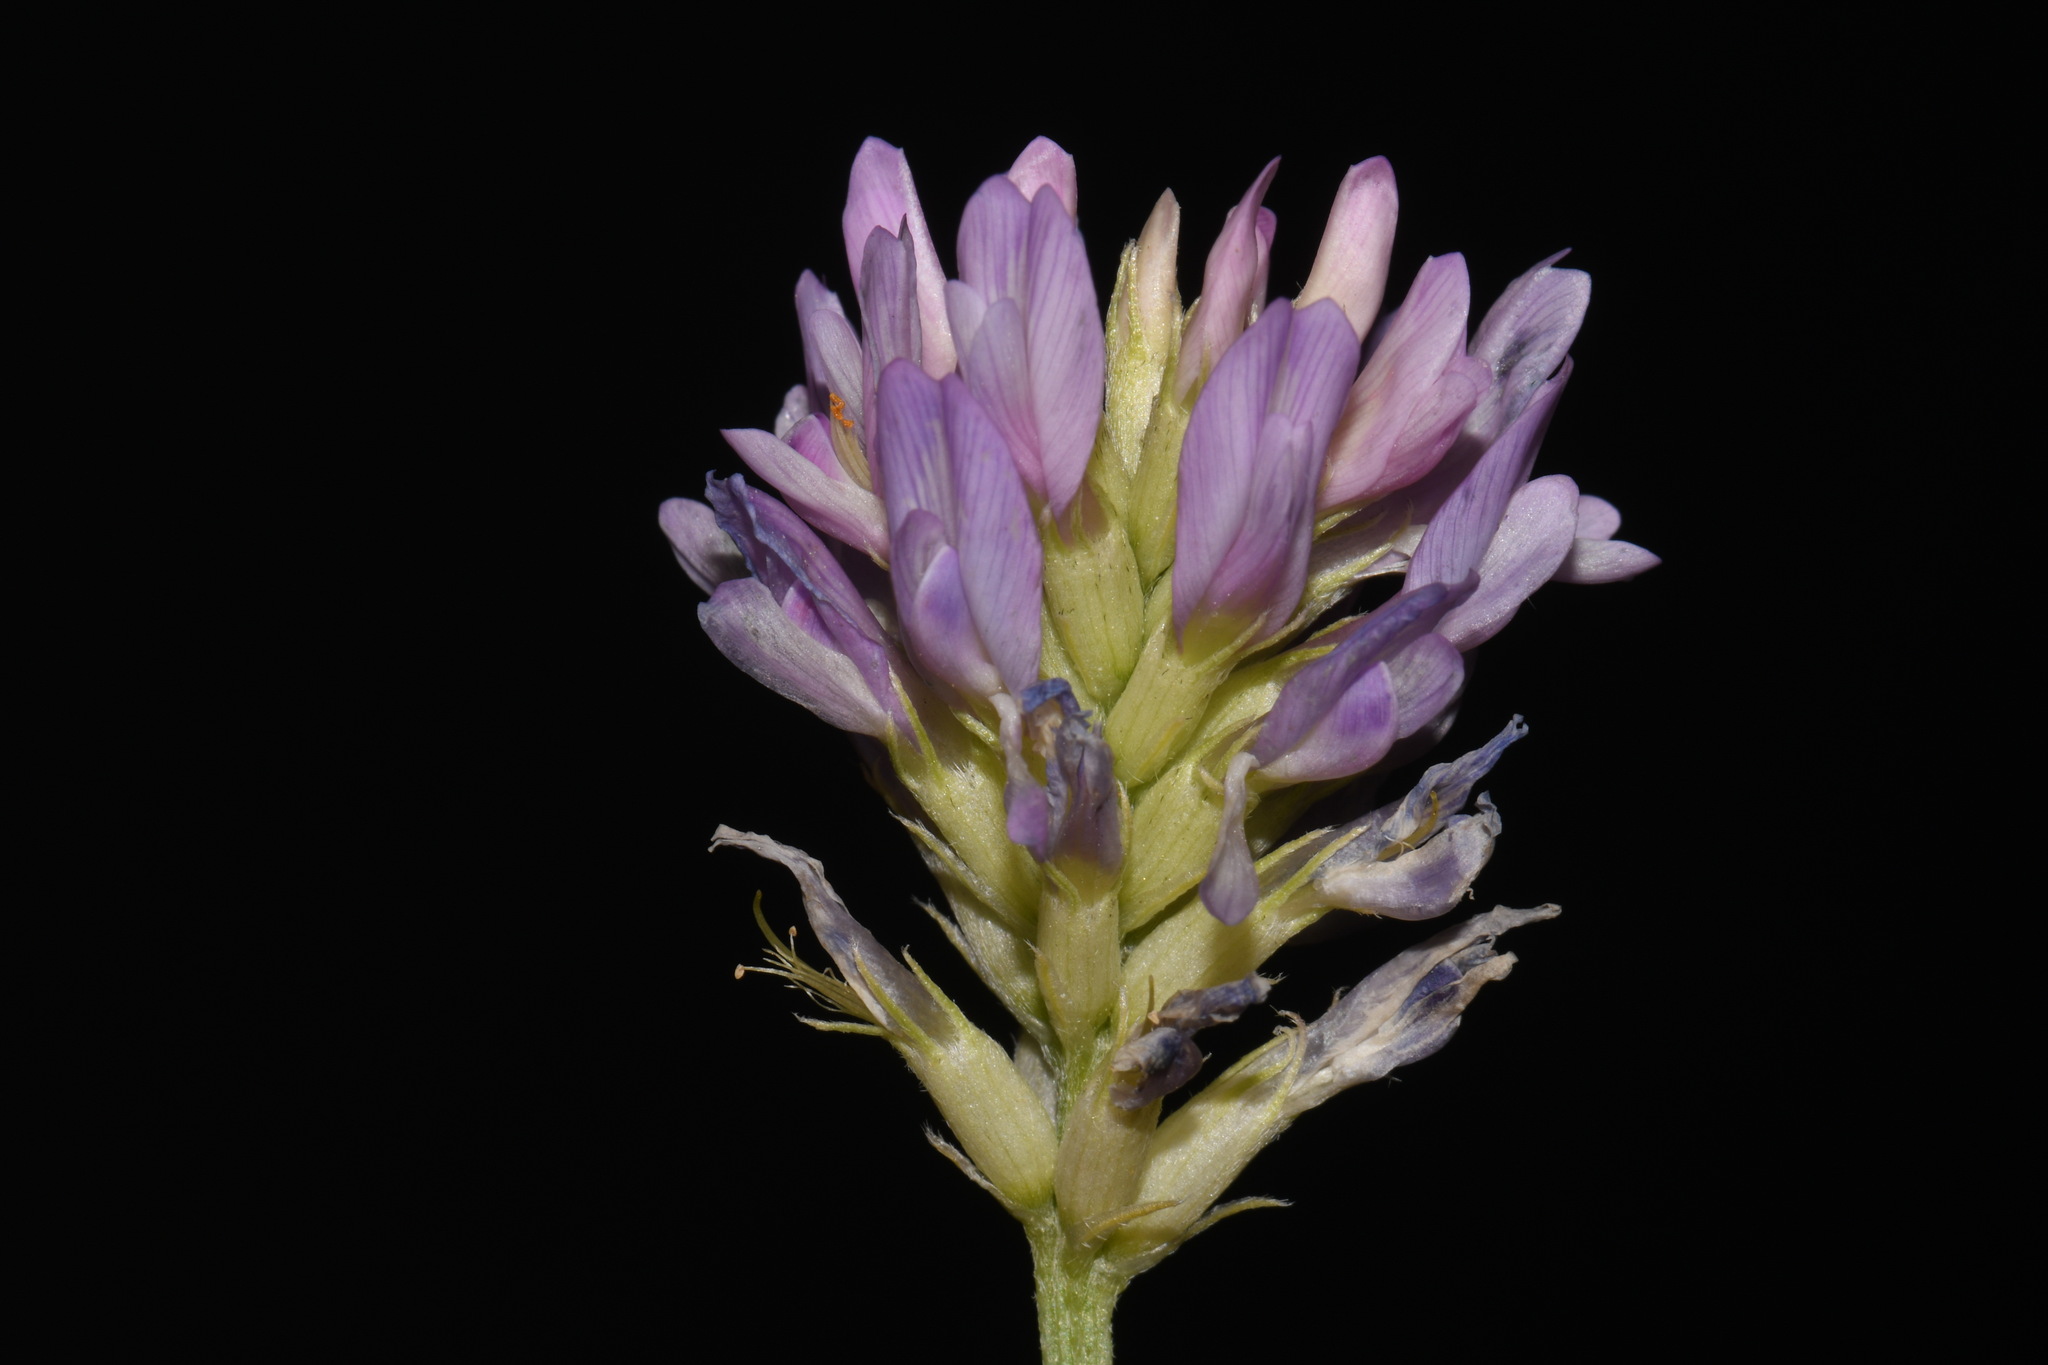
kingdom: Plantae
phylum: Tracheophyta
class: Magnoliopsida
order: Fabales
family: Fabaceae
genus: Astragalus
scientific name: Astragalus laxmannii
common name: Laxmann's milk-vetch
